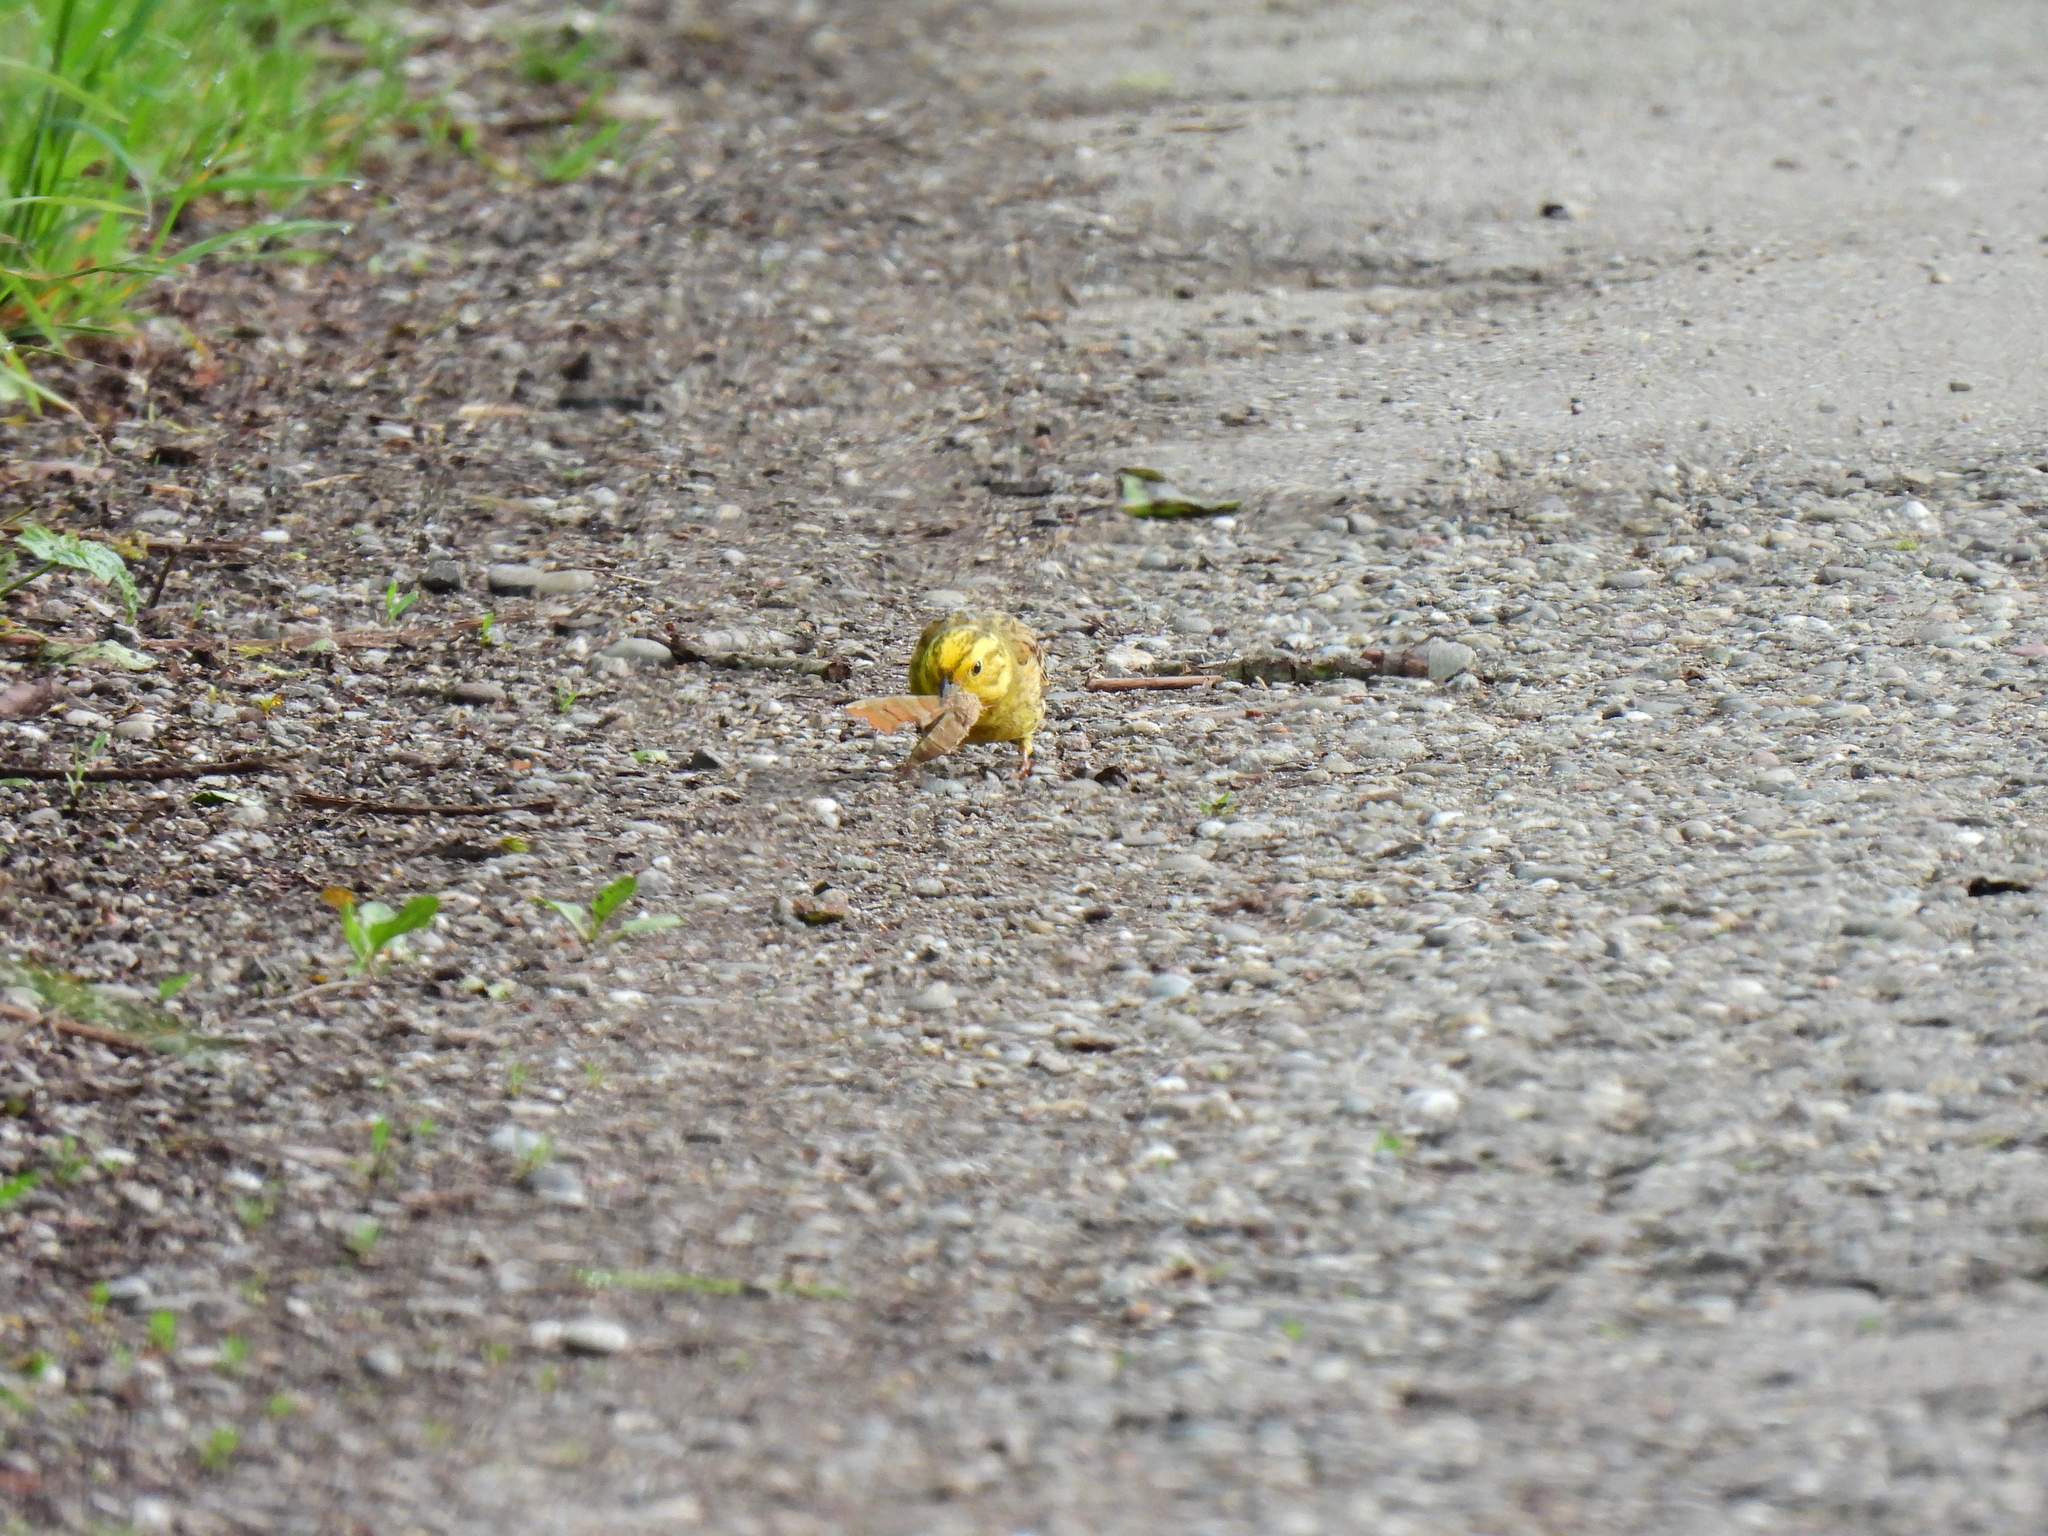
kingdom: Animalia
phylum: Chordata
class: Aves
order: Passeriformes
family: Emberizidae
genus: Emberiza
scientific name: Emberiza citrinella
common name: Yellowhammer
